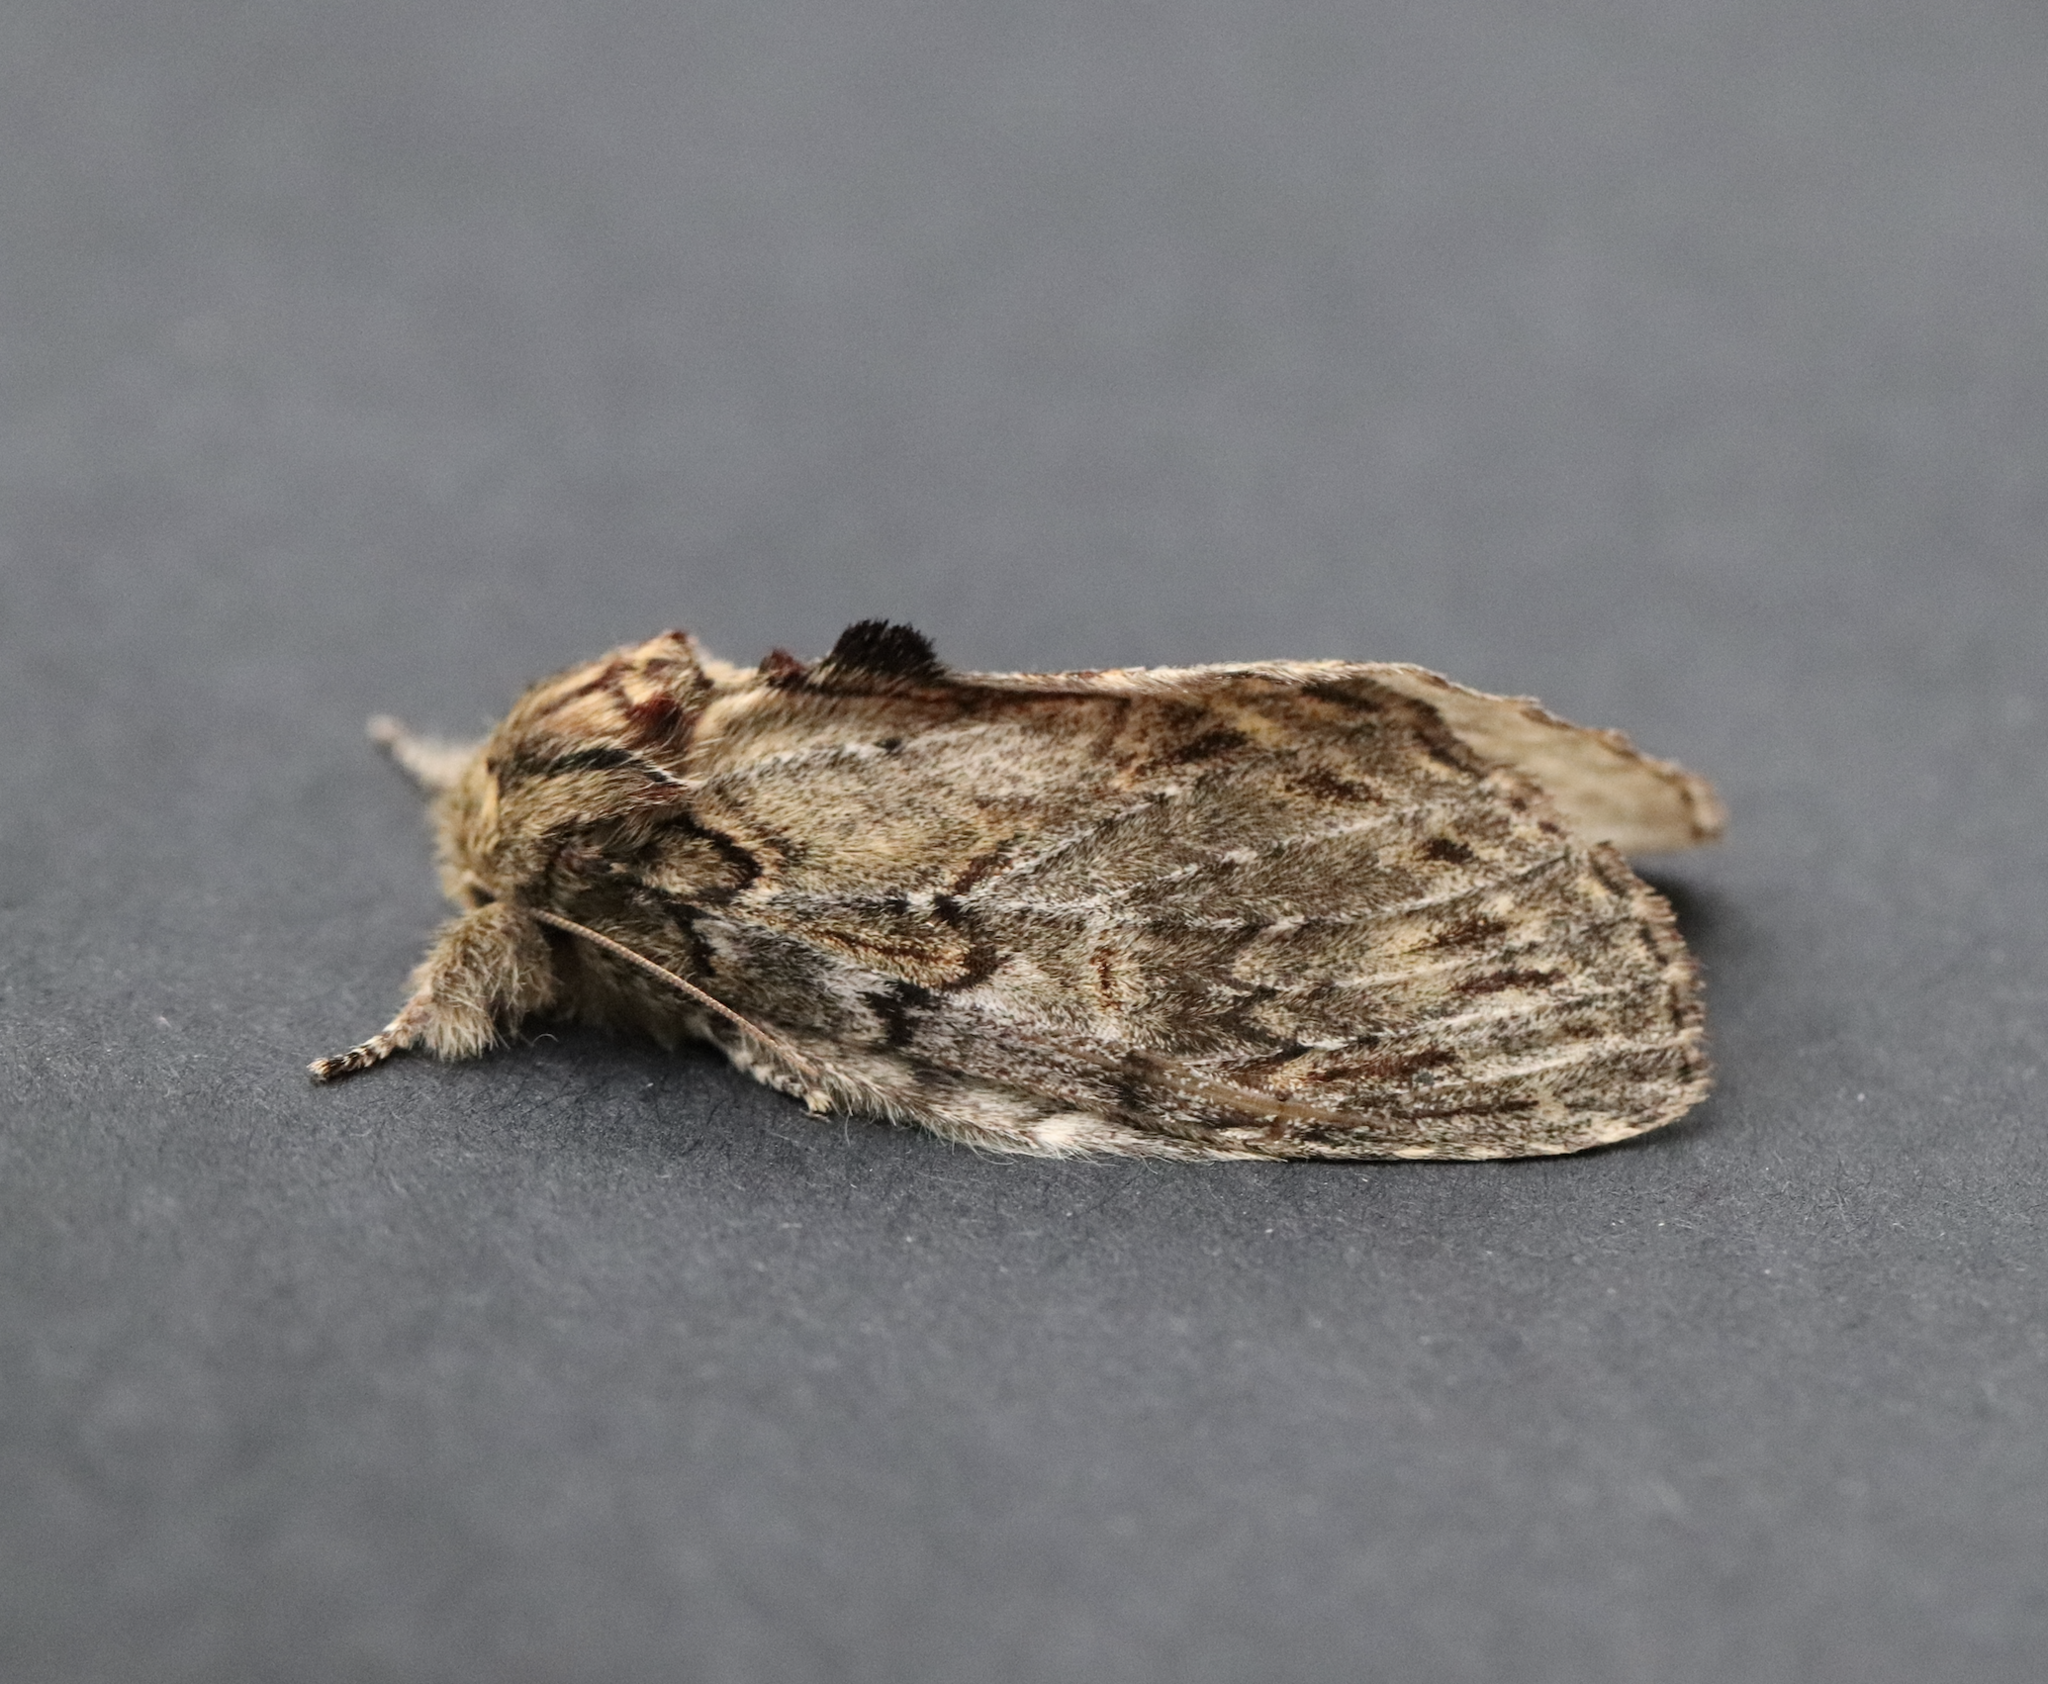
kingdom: Animalia
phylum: Arthropoda
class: Insecta
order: Lepidoptera
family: Notodontidae
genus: Peridea
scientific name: Peridea anceps
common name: Great prominent
